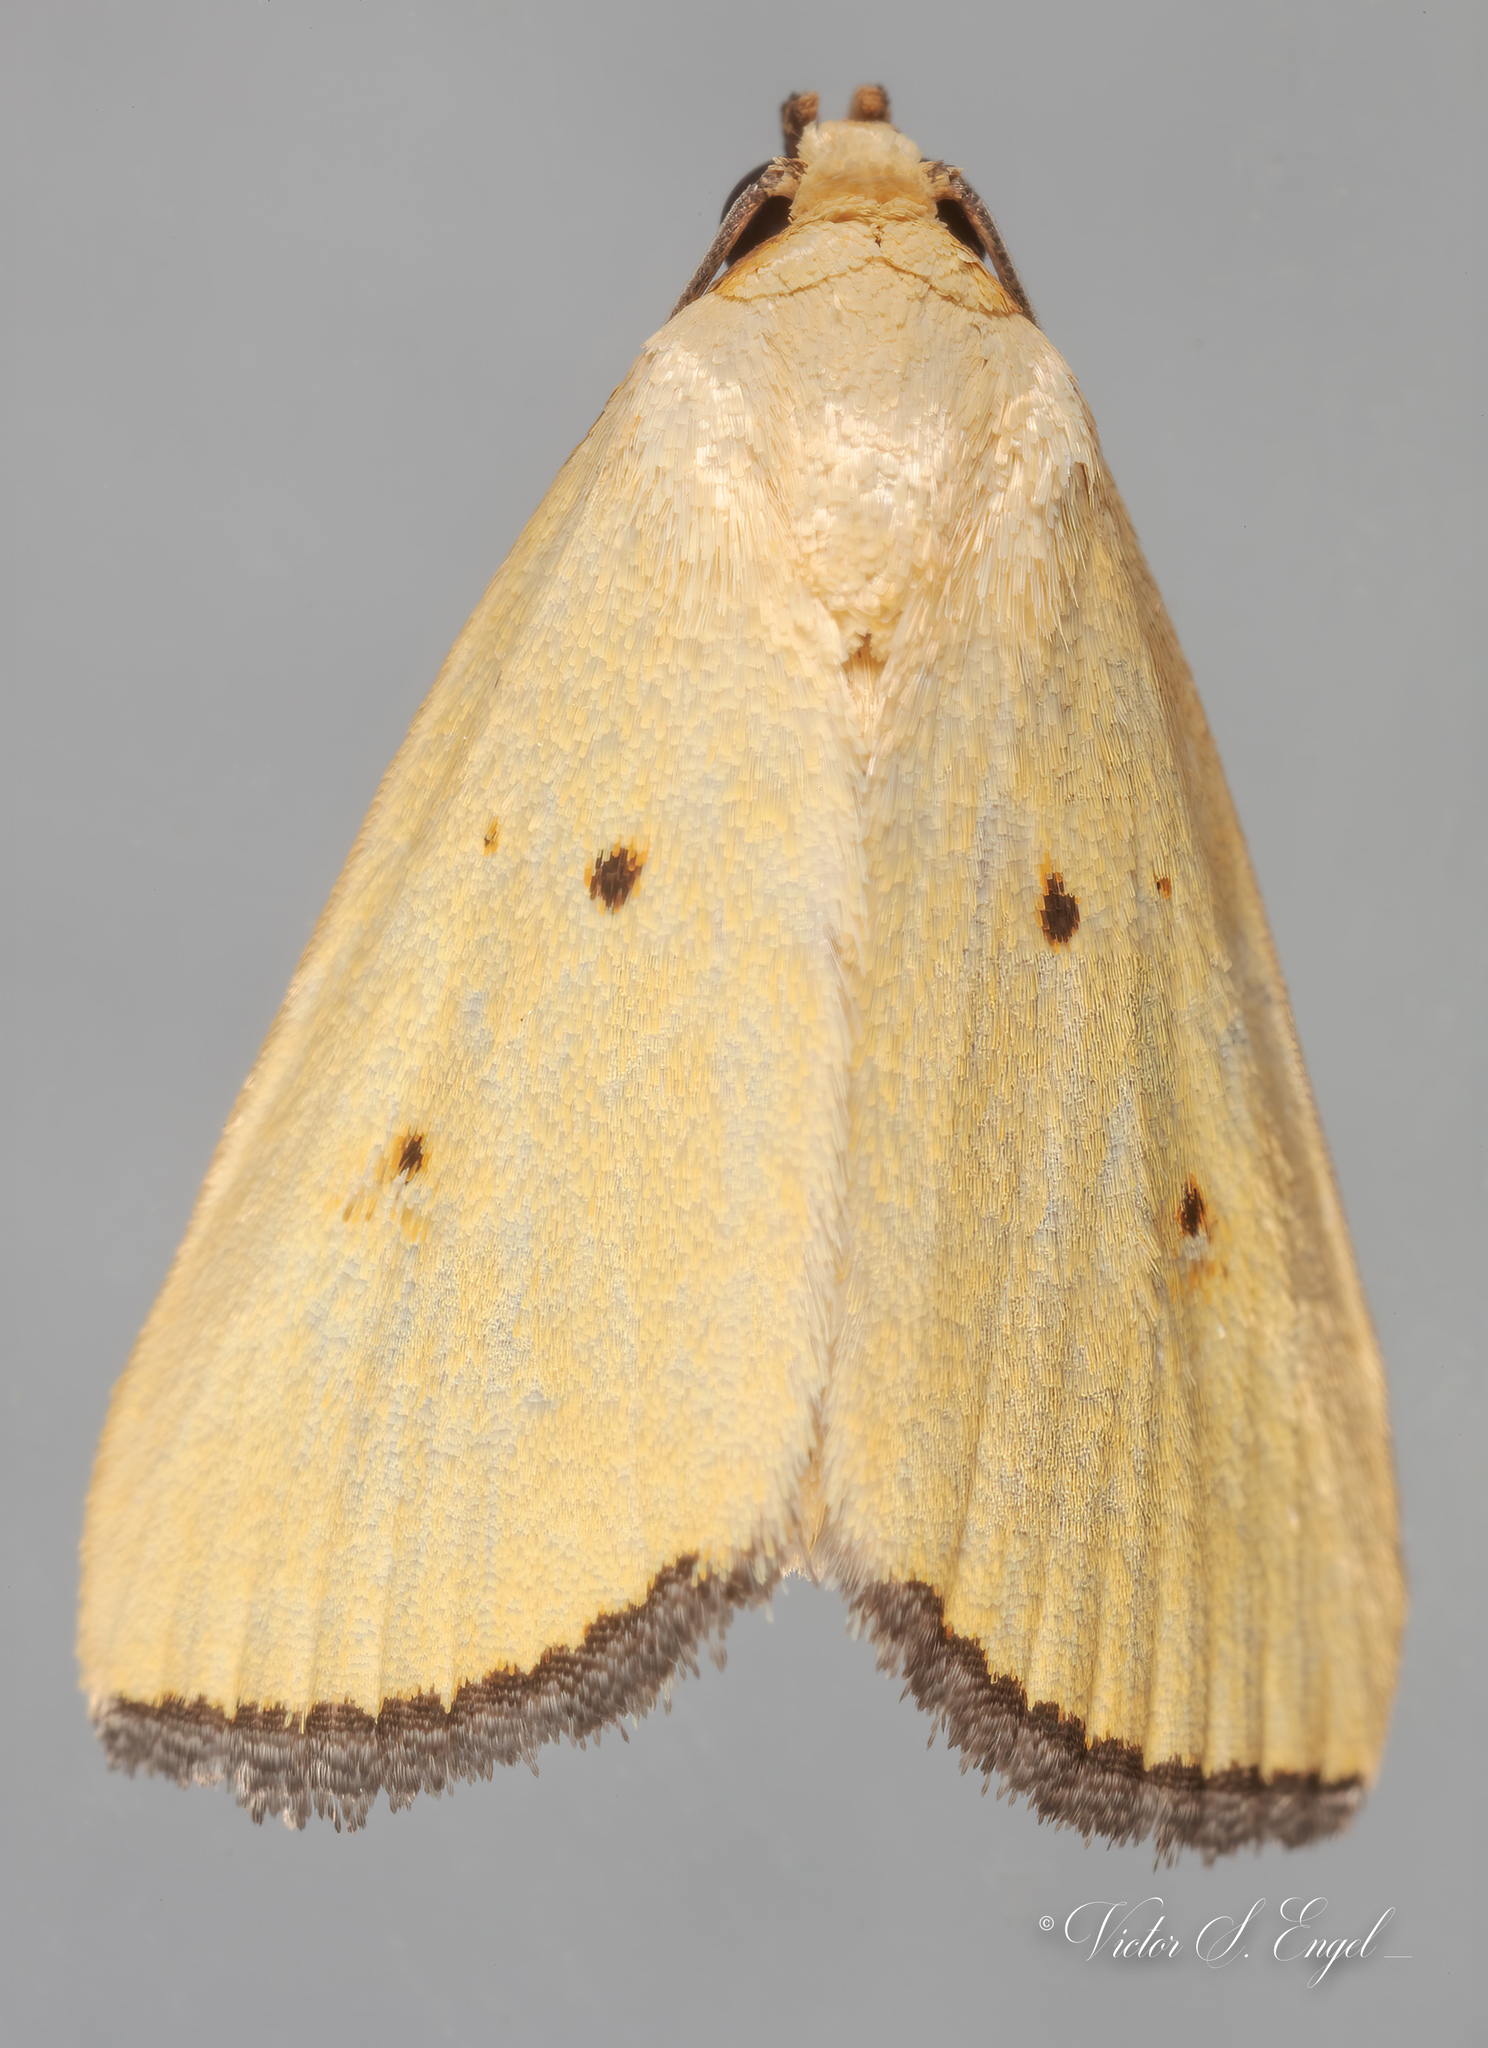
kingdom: Animalia
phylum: Arthropoda
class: Insecta
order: Lepidoptera
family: Noctuidae
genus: Marimatha
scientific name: Marimatha nigrofimbria
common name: Black-bordered lemon moth
